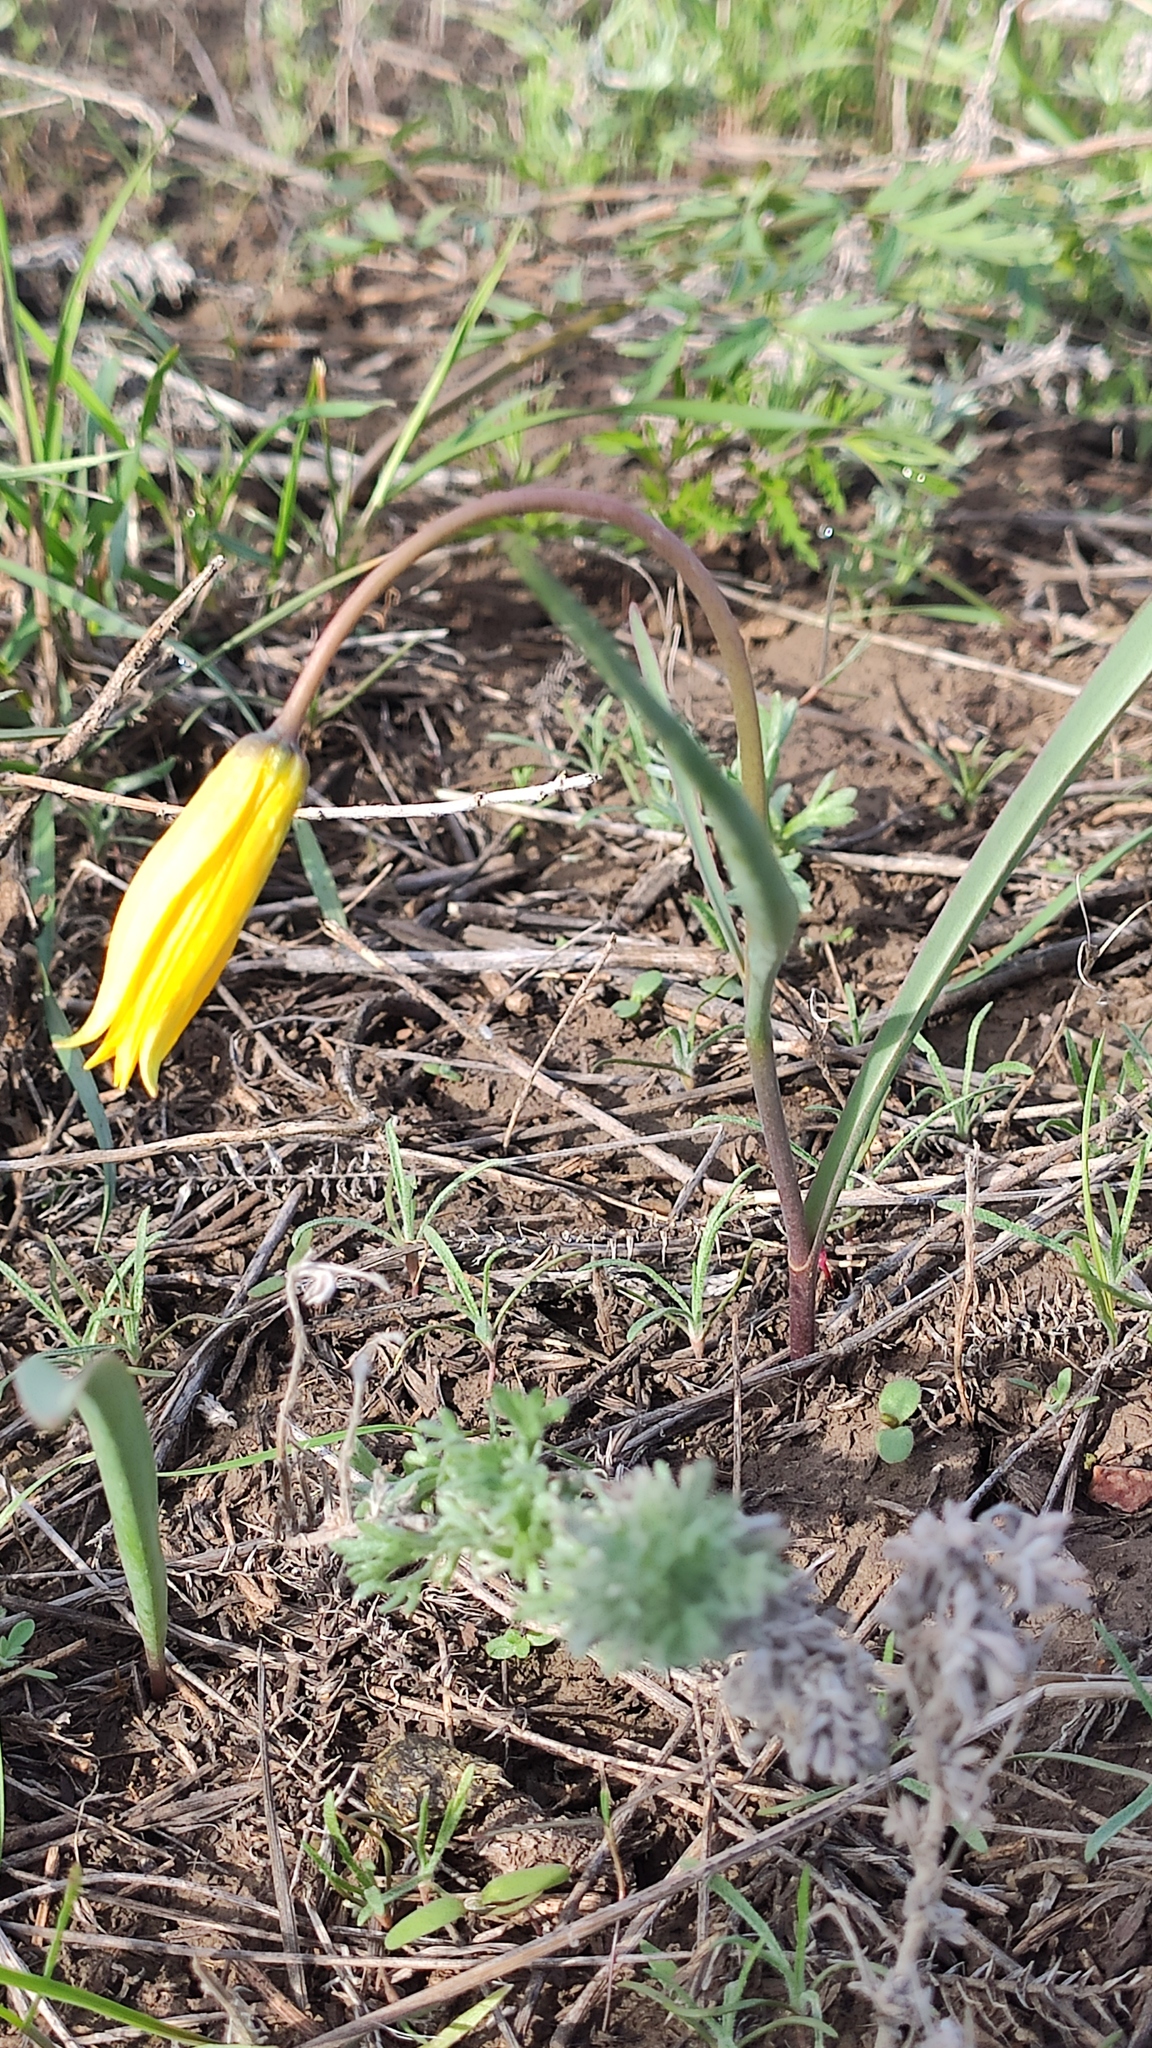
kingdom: Plantae
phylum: Tracheophyta
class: Liliopsida
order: Liliales
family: Liliaceae
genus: Tulipa
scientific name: Tulipa sylvestris
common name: Wild tulip
